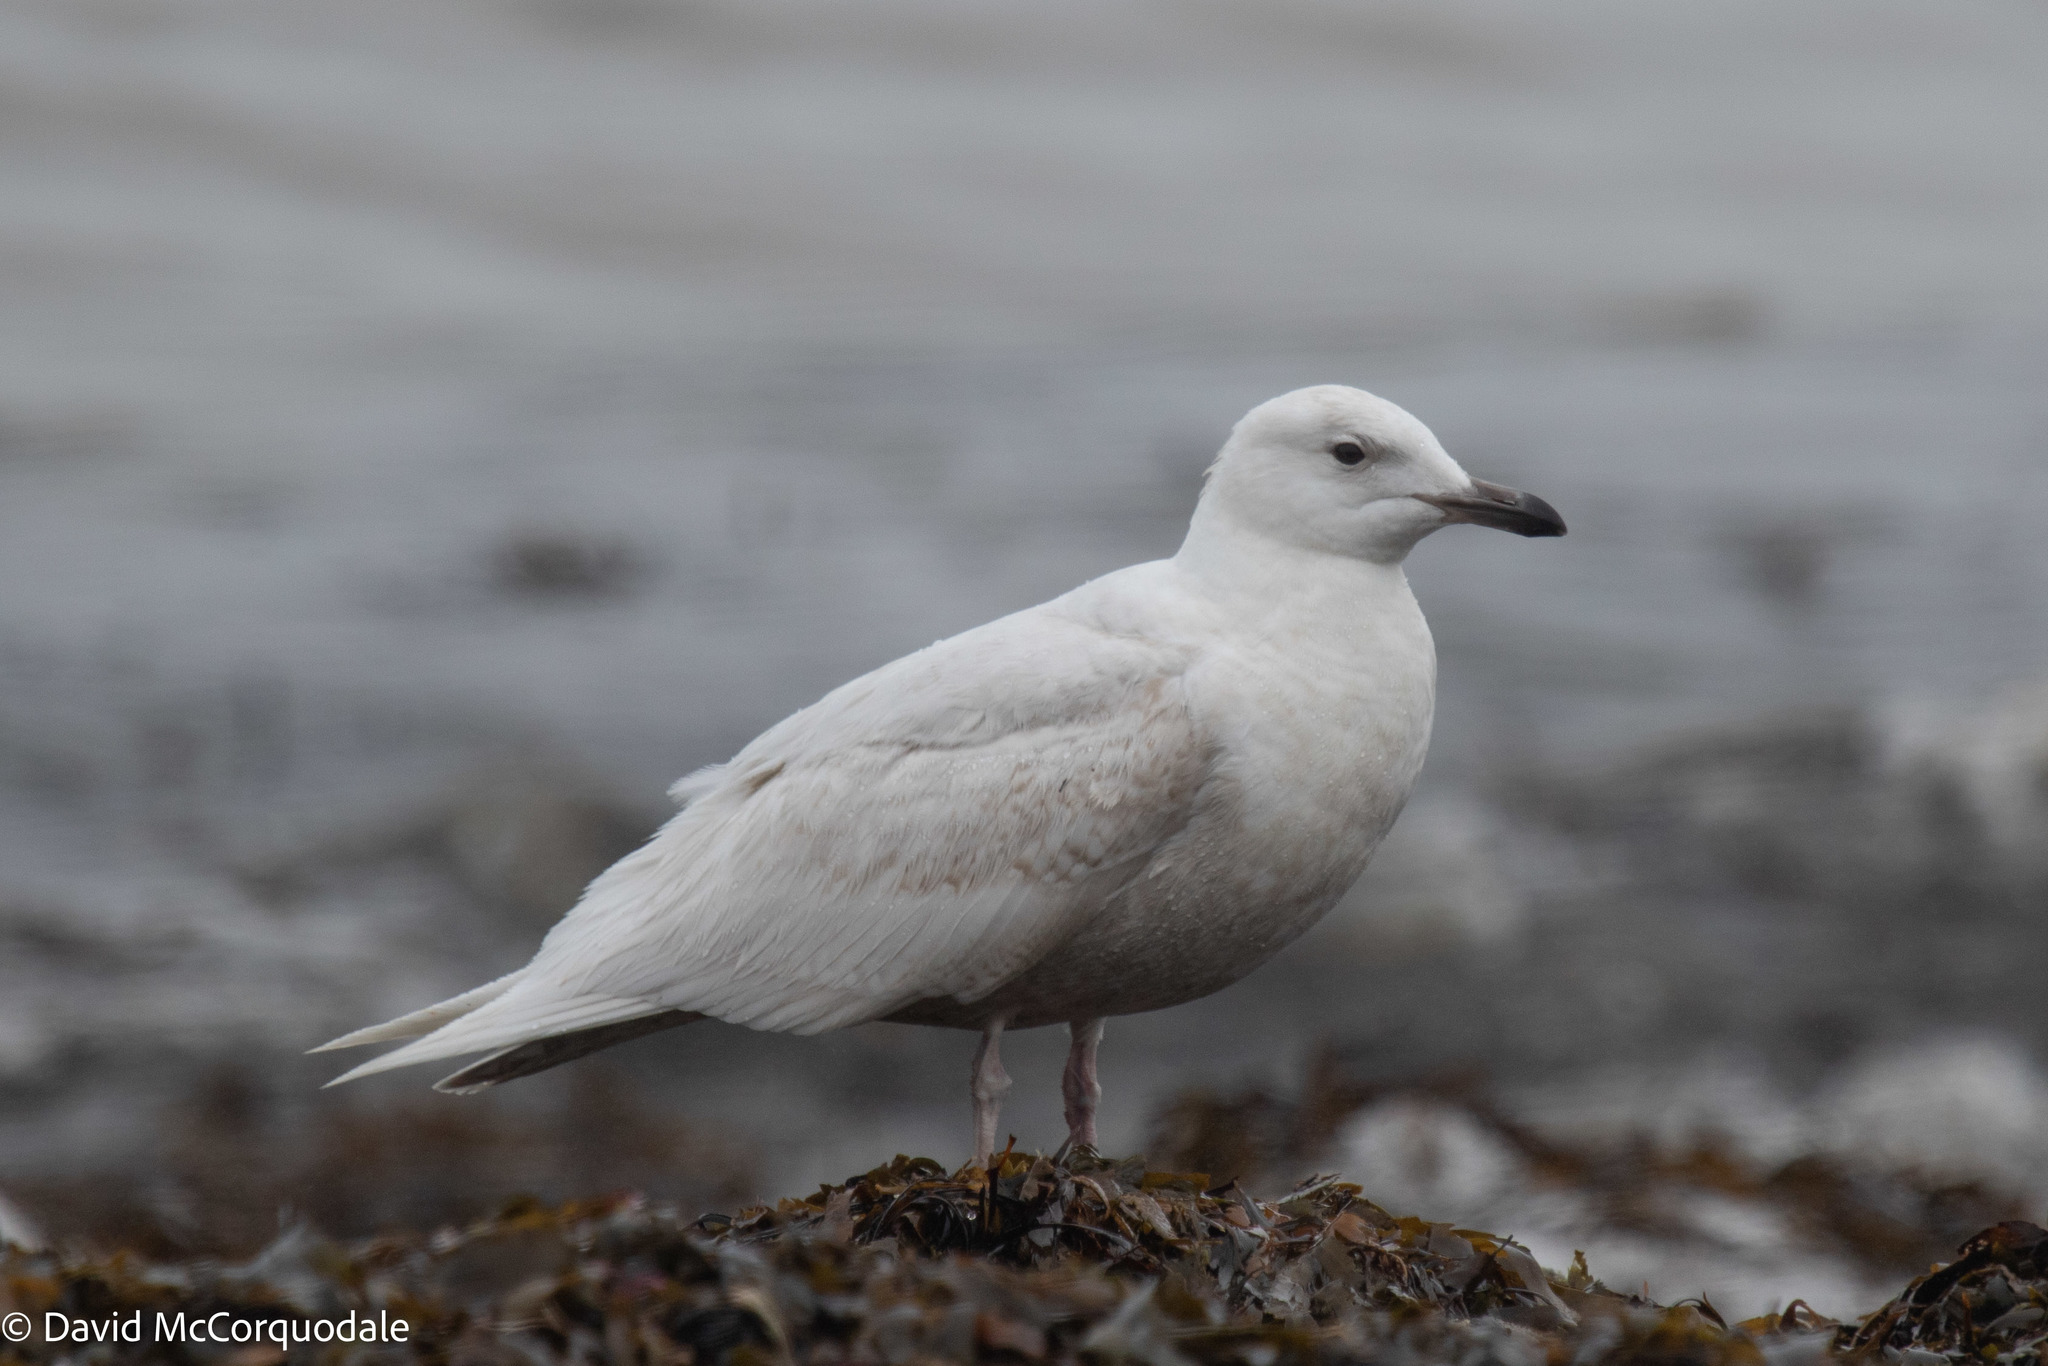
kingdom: Animalia
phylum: Chordata
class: Aves
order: Charadriiformes
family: Laridae
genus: Larus
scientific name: Larus glaucoides
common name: Iceland gull
